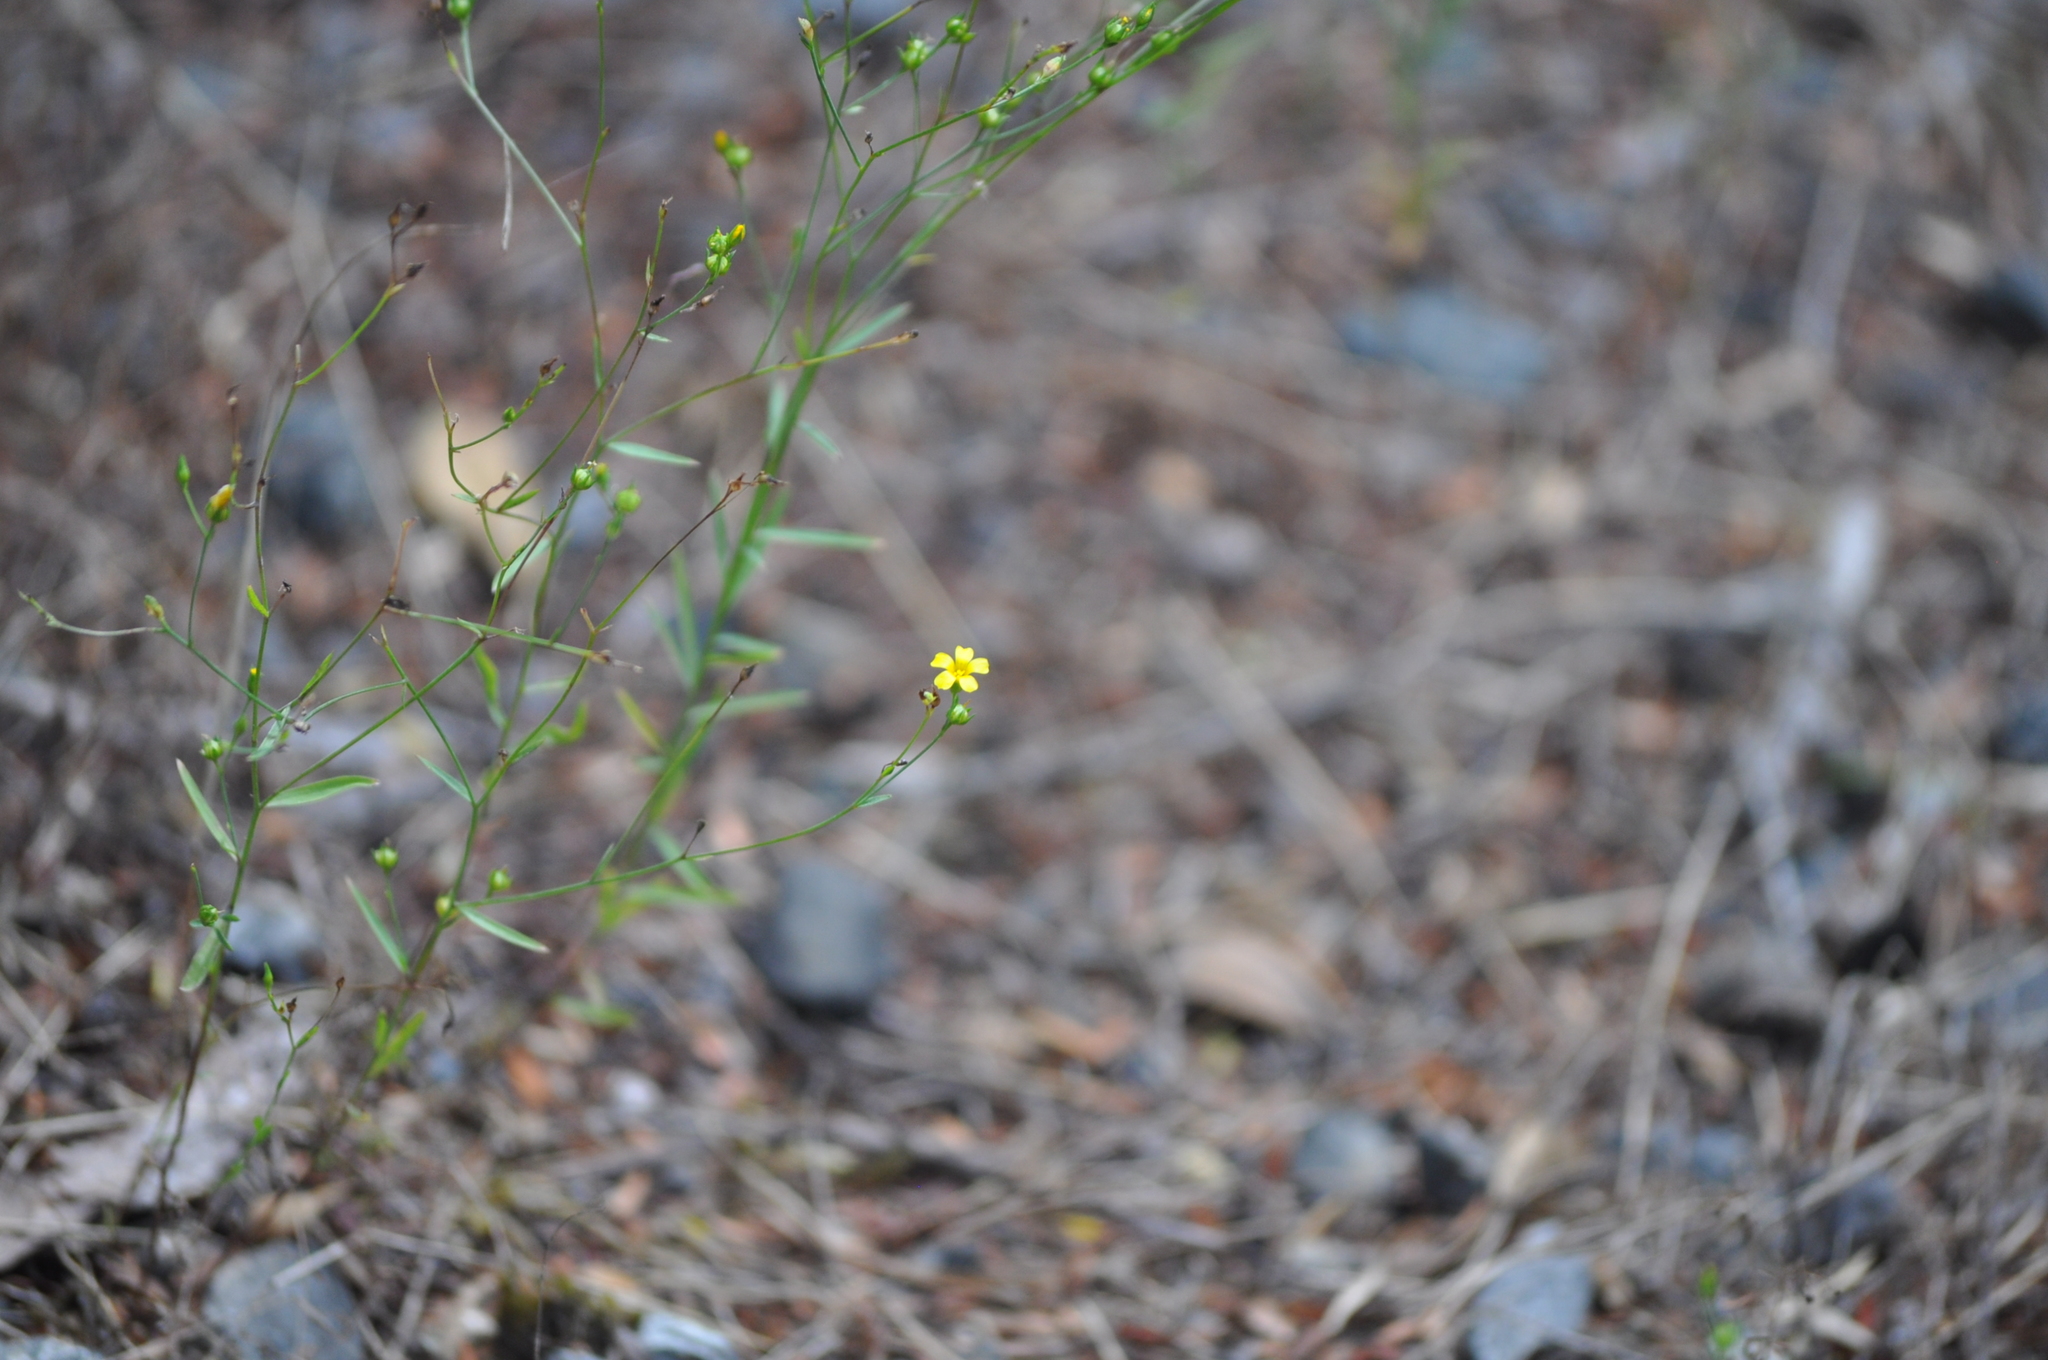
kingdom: Plantae
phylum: Tracheophyta
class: Magnoliopsida
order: Malpighiales
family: Linaceae
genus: Linum
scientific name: Linum trigynum
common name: French flax
